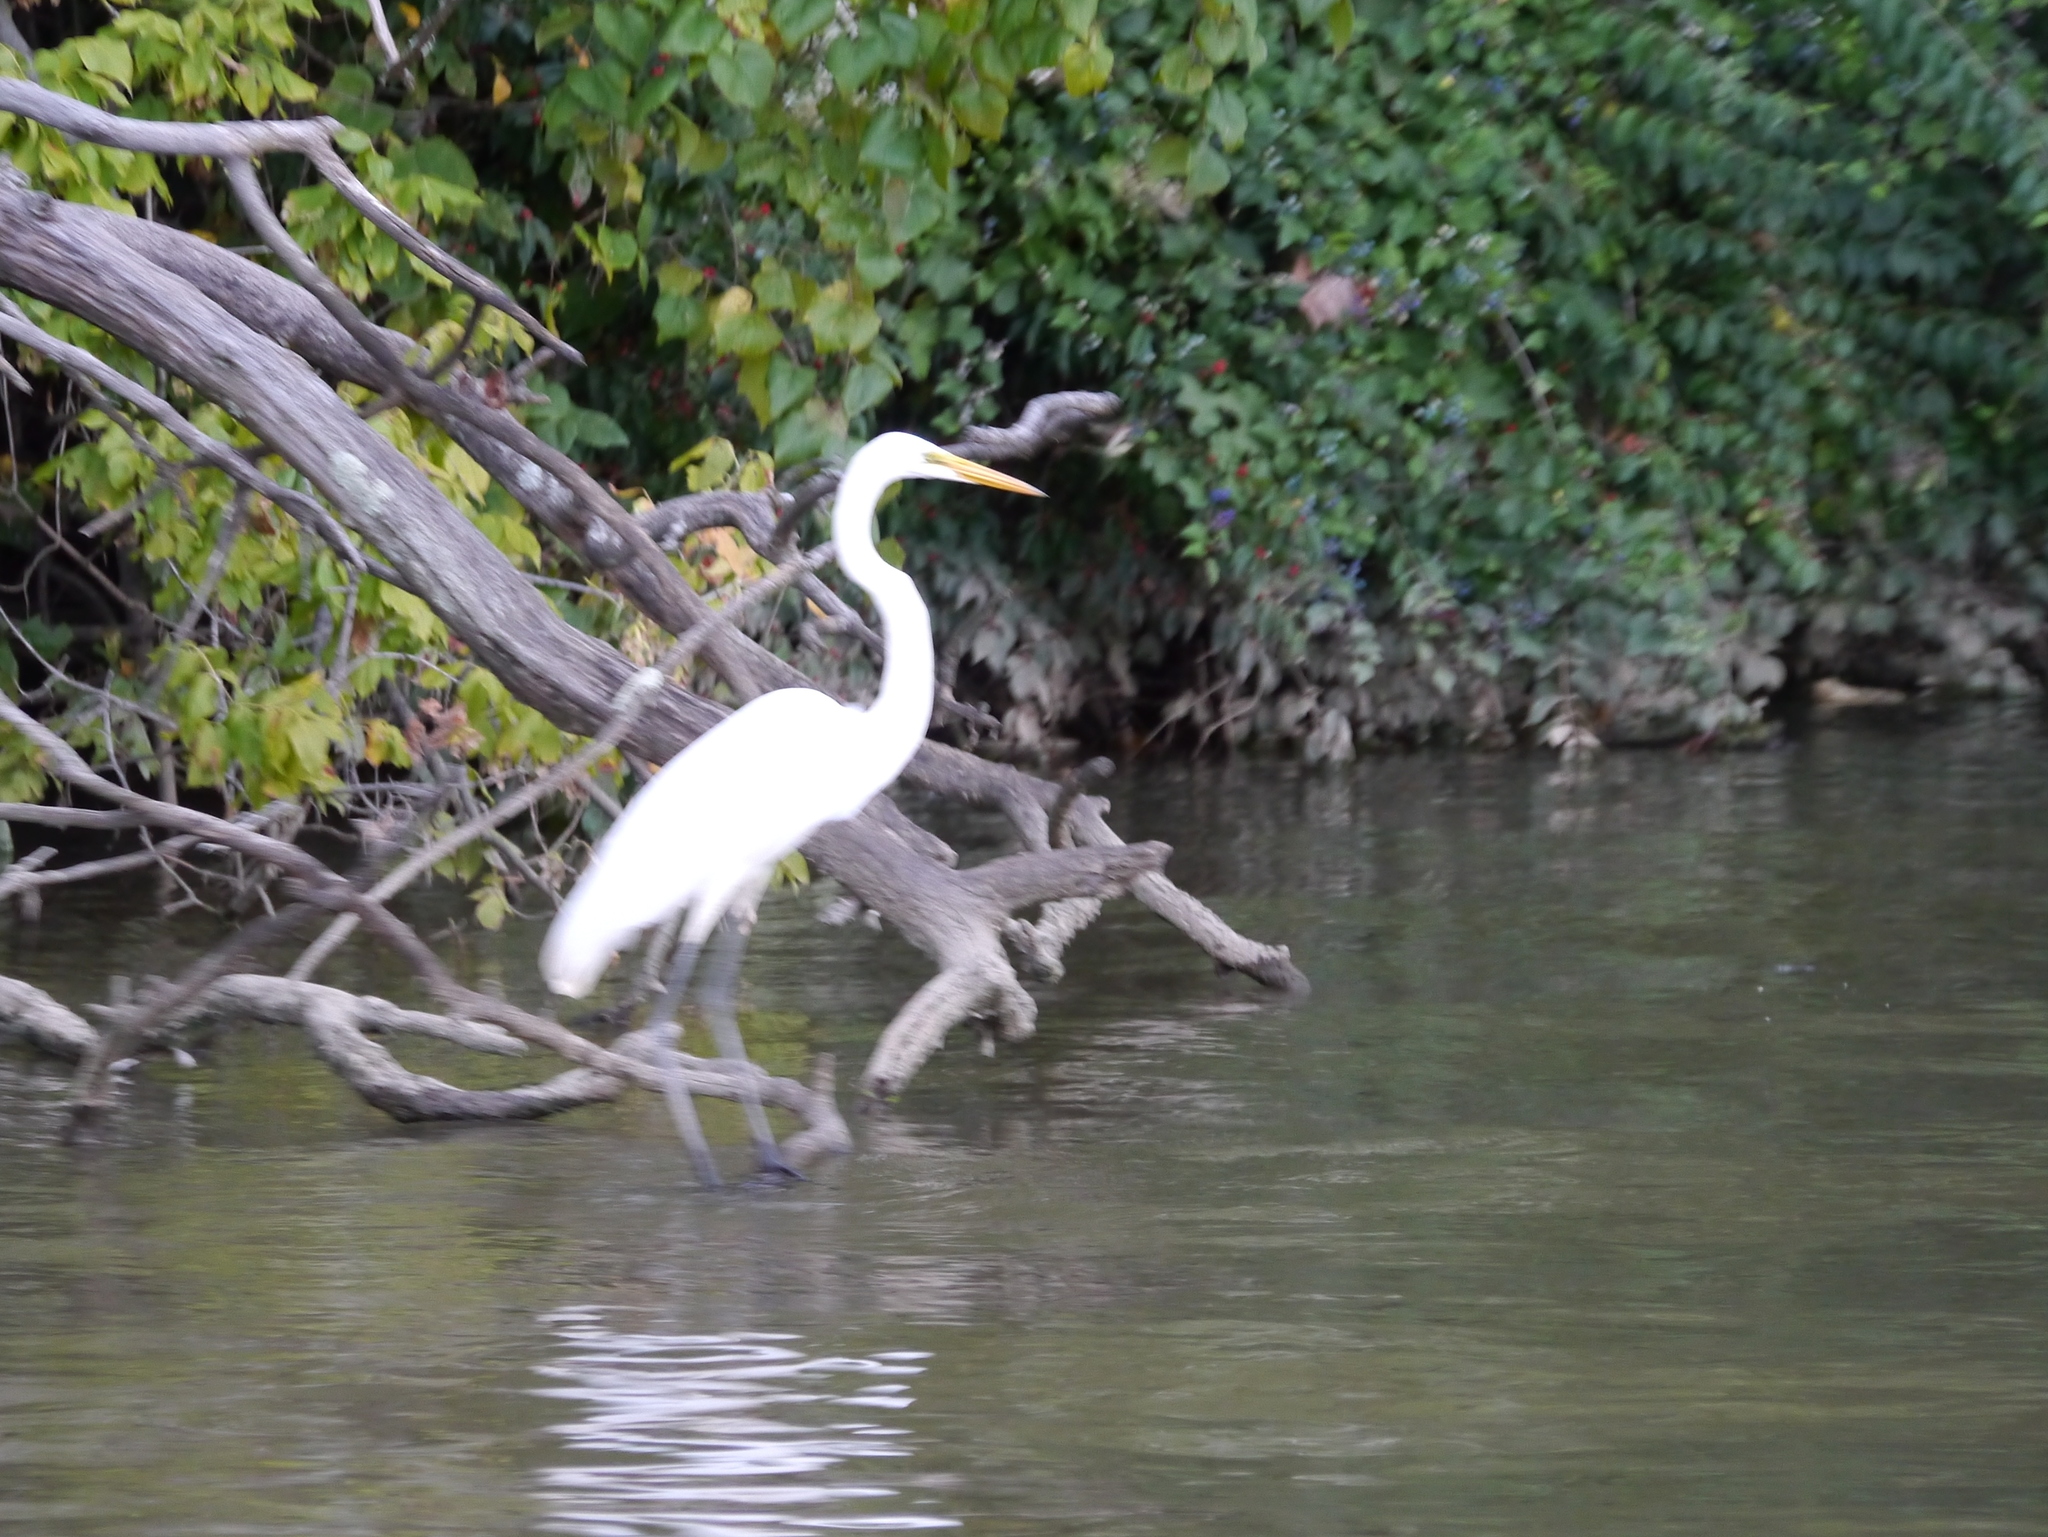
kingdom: Animalia
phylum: Chordata
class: Aves
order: Pelecaniformes
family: Ardeidae
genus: Ardea
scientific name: Ardea alba
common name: Great egret
